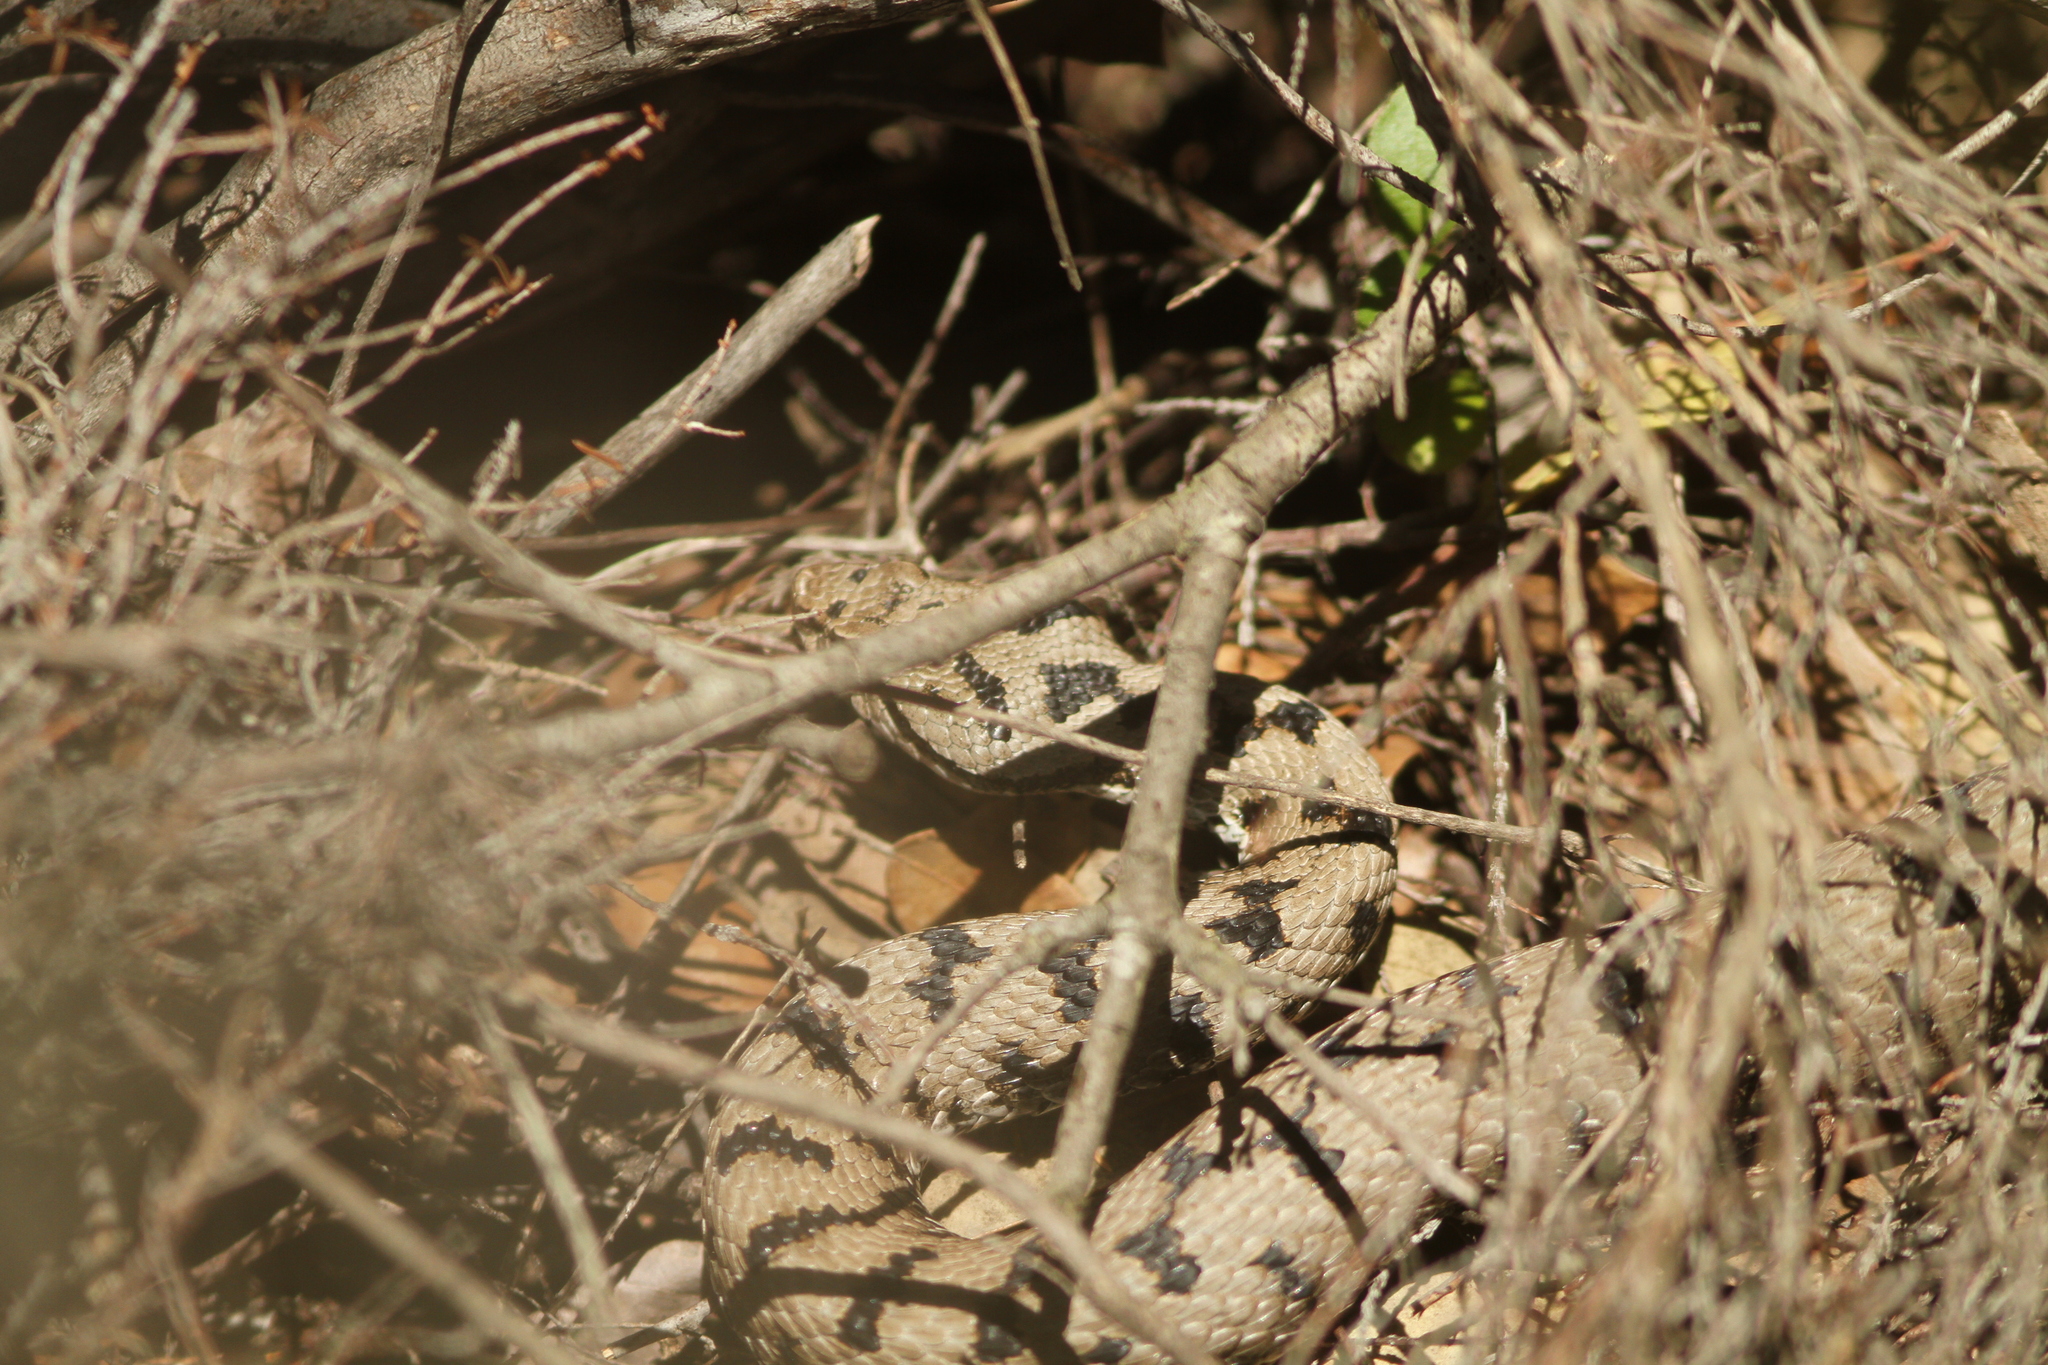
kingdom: Animalia
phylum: Chordata
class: Squamata
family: Viperidae
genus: Vipera
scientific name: Vipera aspis
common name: Asp viper
